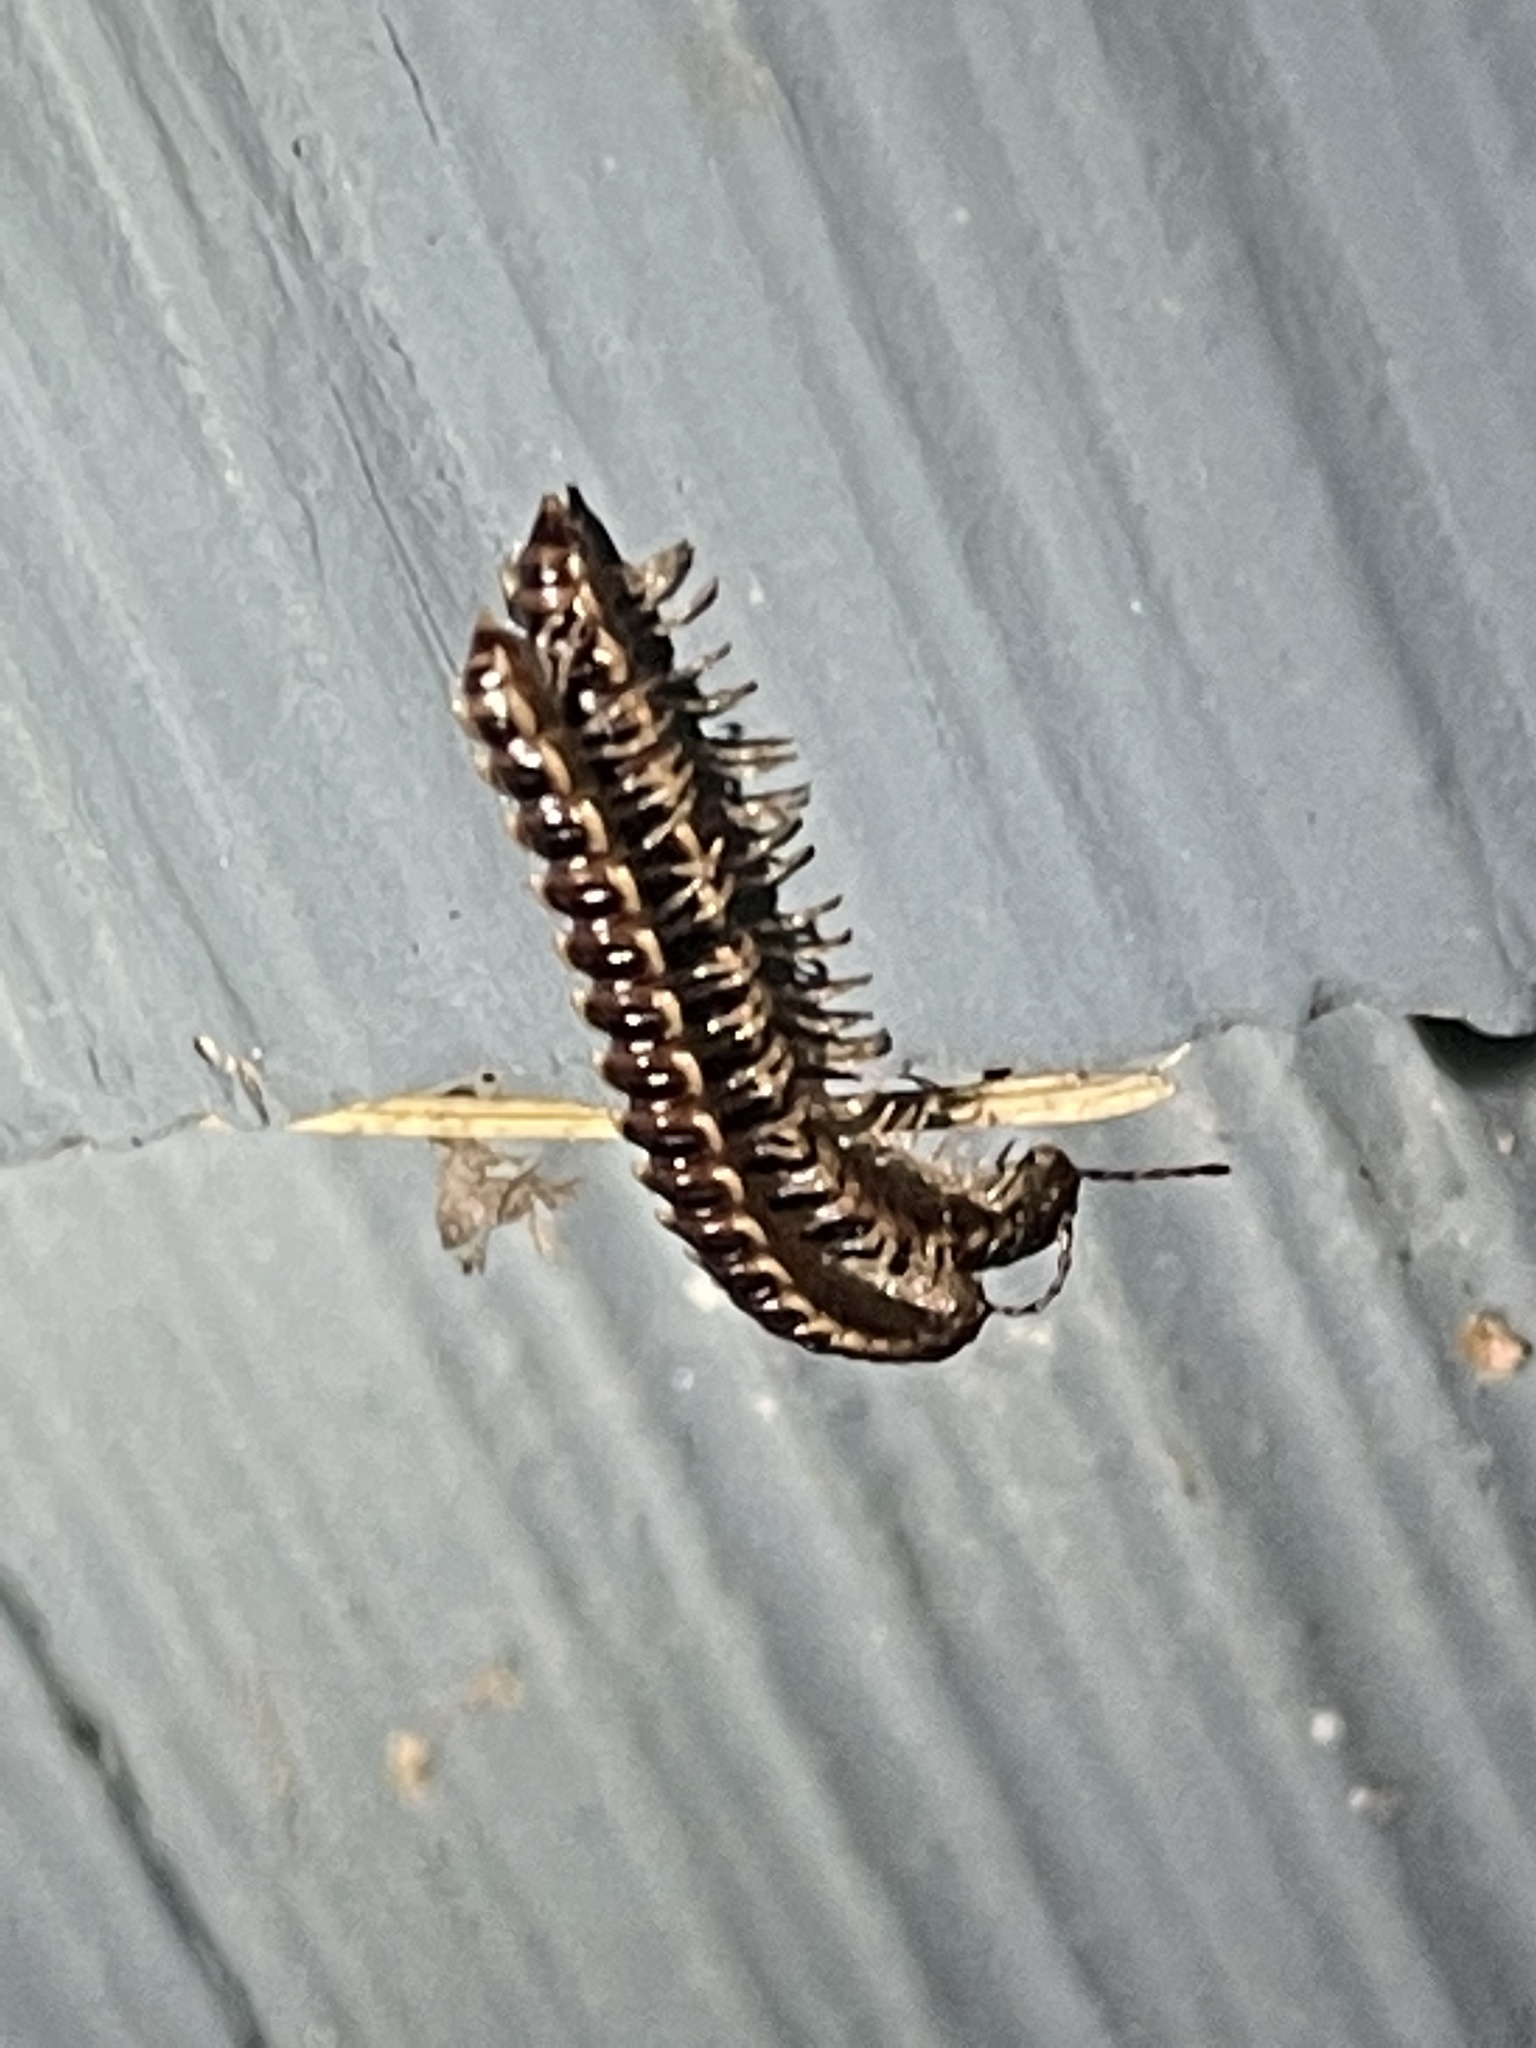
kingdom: Animalia
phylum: Arthropoda
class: Diplopoda
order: Polydesmida
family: Paradoxosomatidae
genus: Oxidus
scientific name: Oxidus gracilis
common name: Greenhouse millipede
